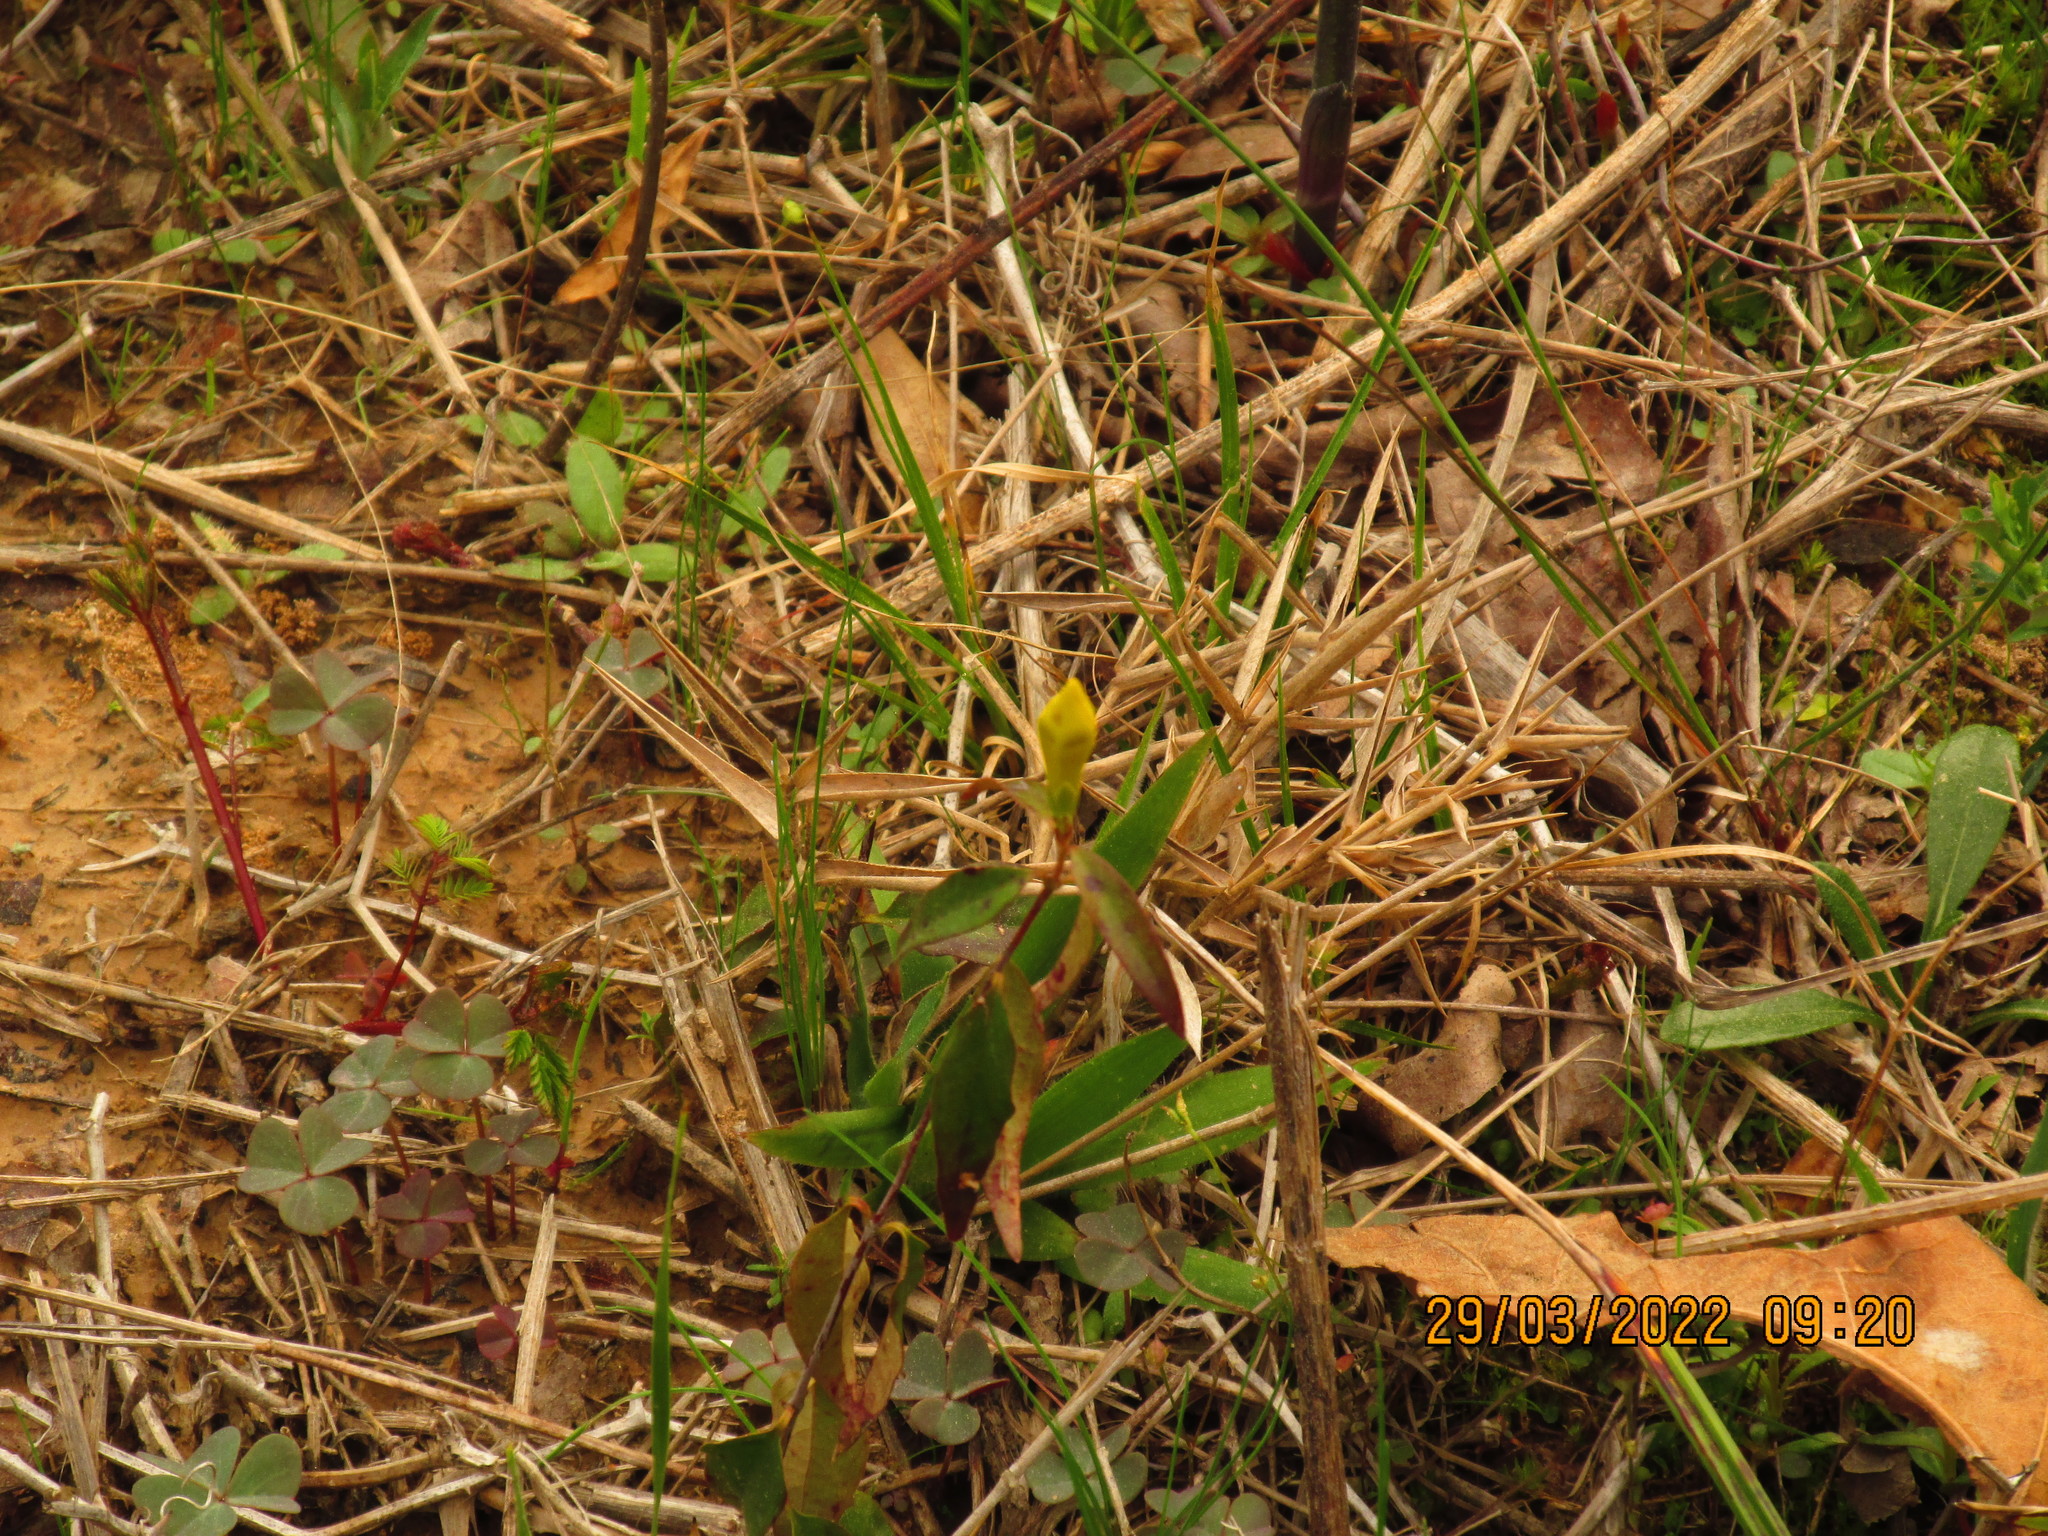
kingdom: Plantae
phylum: Tracheophyta
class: Magnoliopsida
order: Gentianales
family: Gelsemiaceae
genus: Gelsemium
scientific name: Gelsemium sempervirens
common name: Carolina-jasmine
